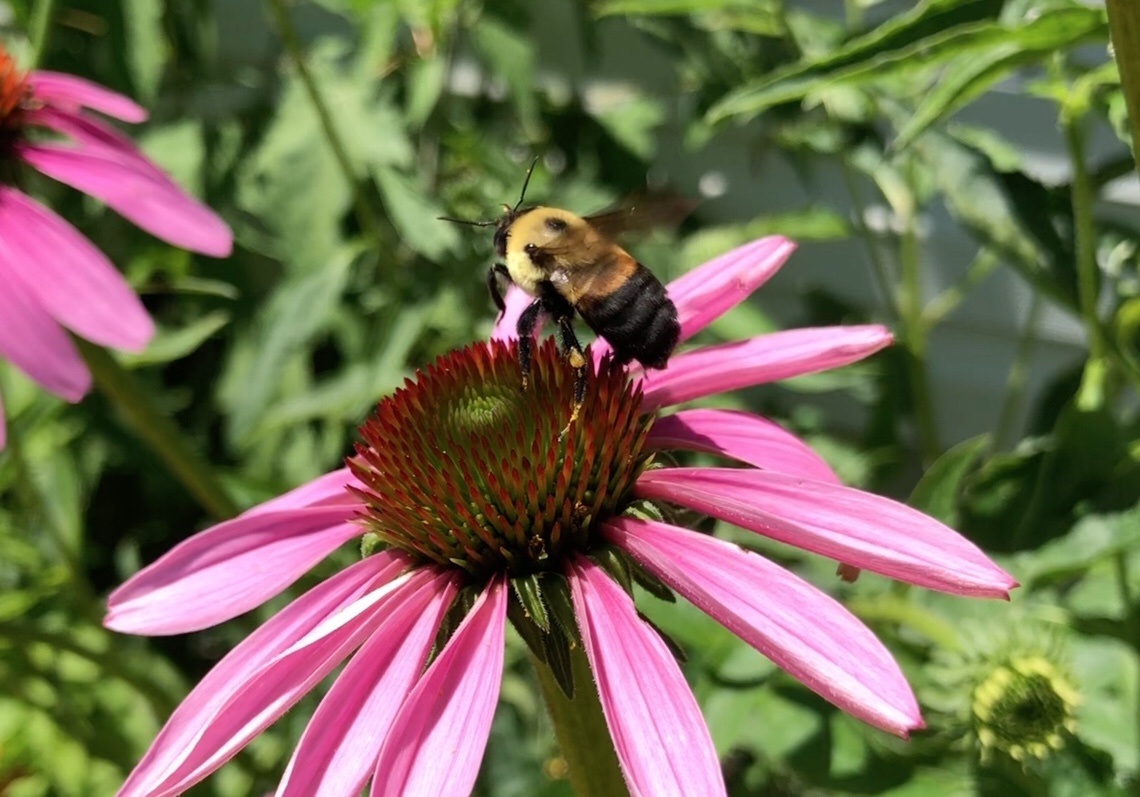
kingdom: Animalia
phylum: Arthropoda
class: Insecta
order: Hymenoptera
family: Apidae
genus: Bombus
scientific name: Bombus griseocollis
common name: Brown-belted bumble bee
